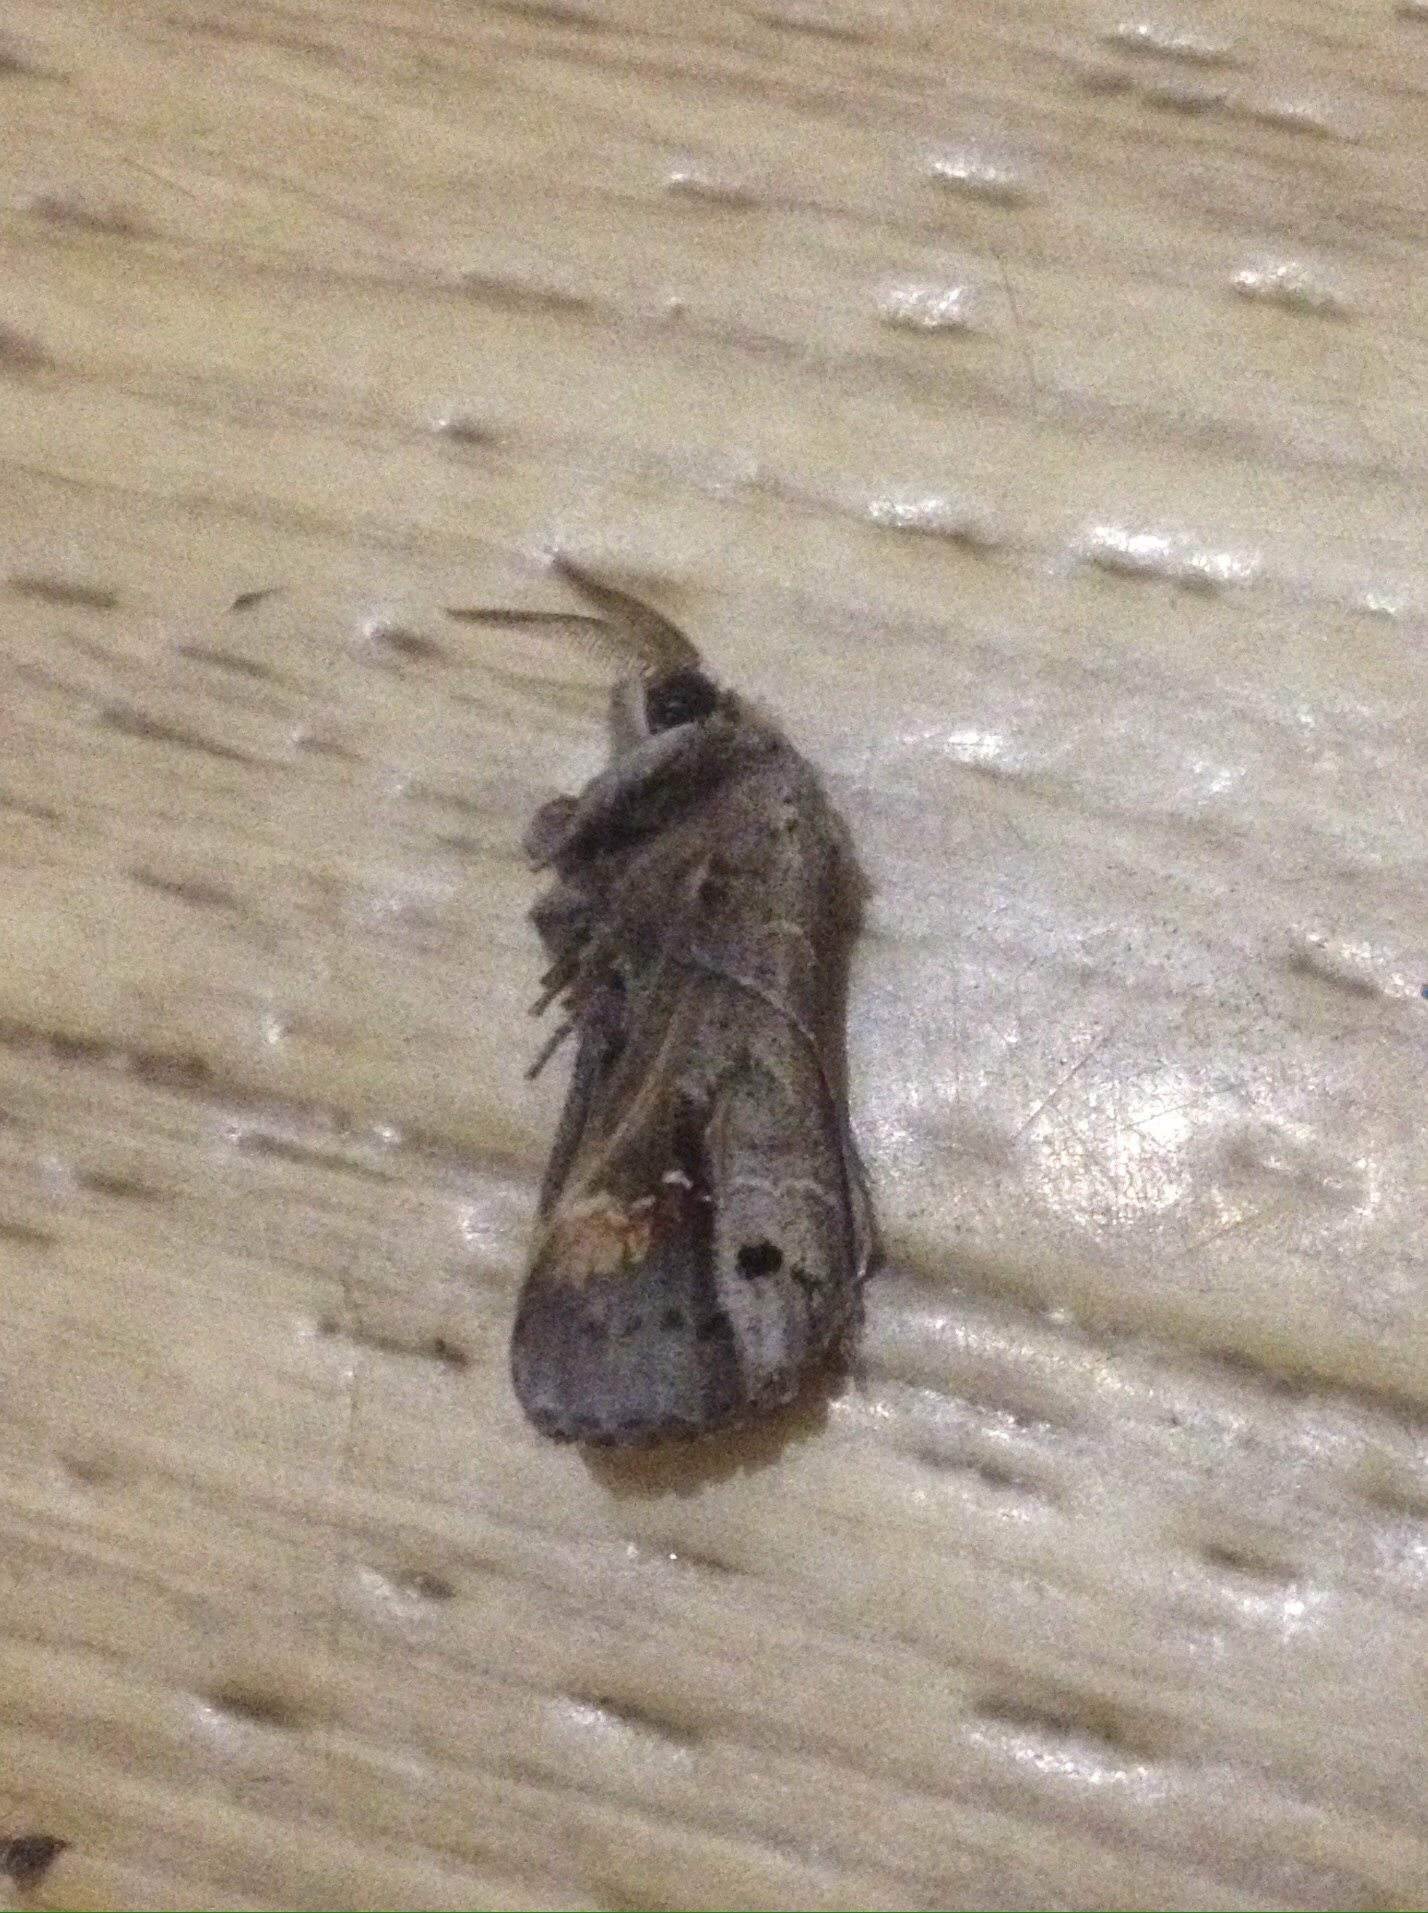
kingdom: Animalia
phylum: Arthropoda
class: Insecta
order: Lepidoptera
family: Notodontidae
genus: Clostera
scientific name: Clostera anachoreta
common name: Scarce chocolate-tip
